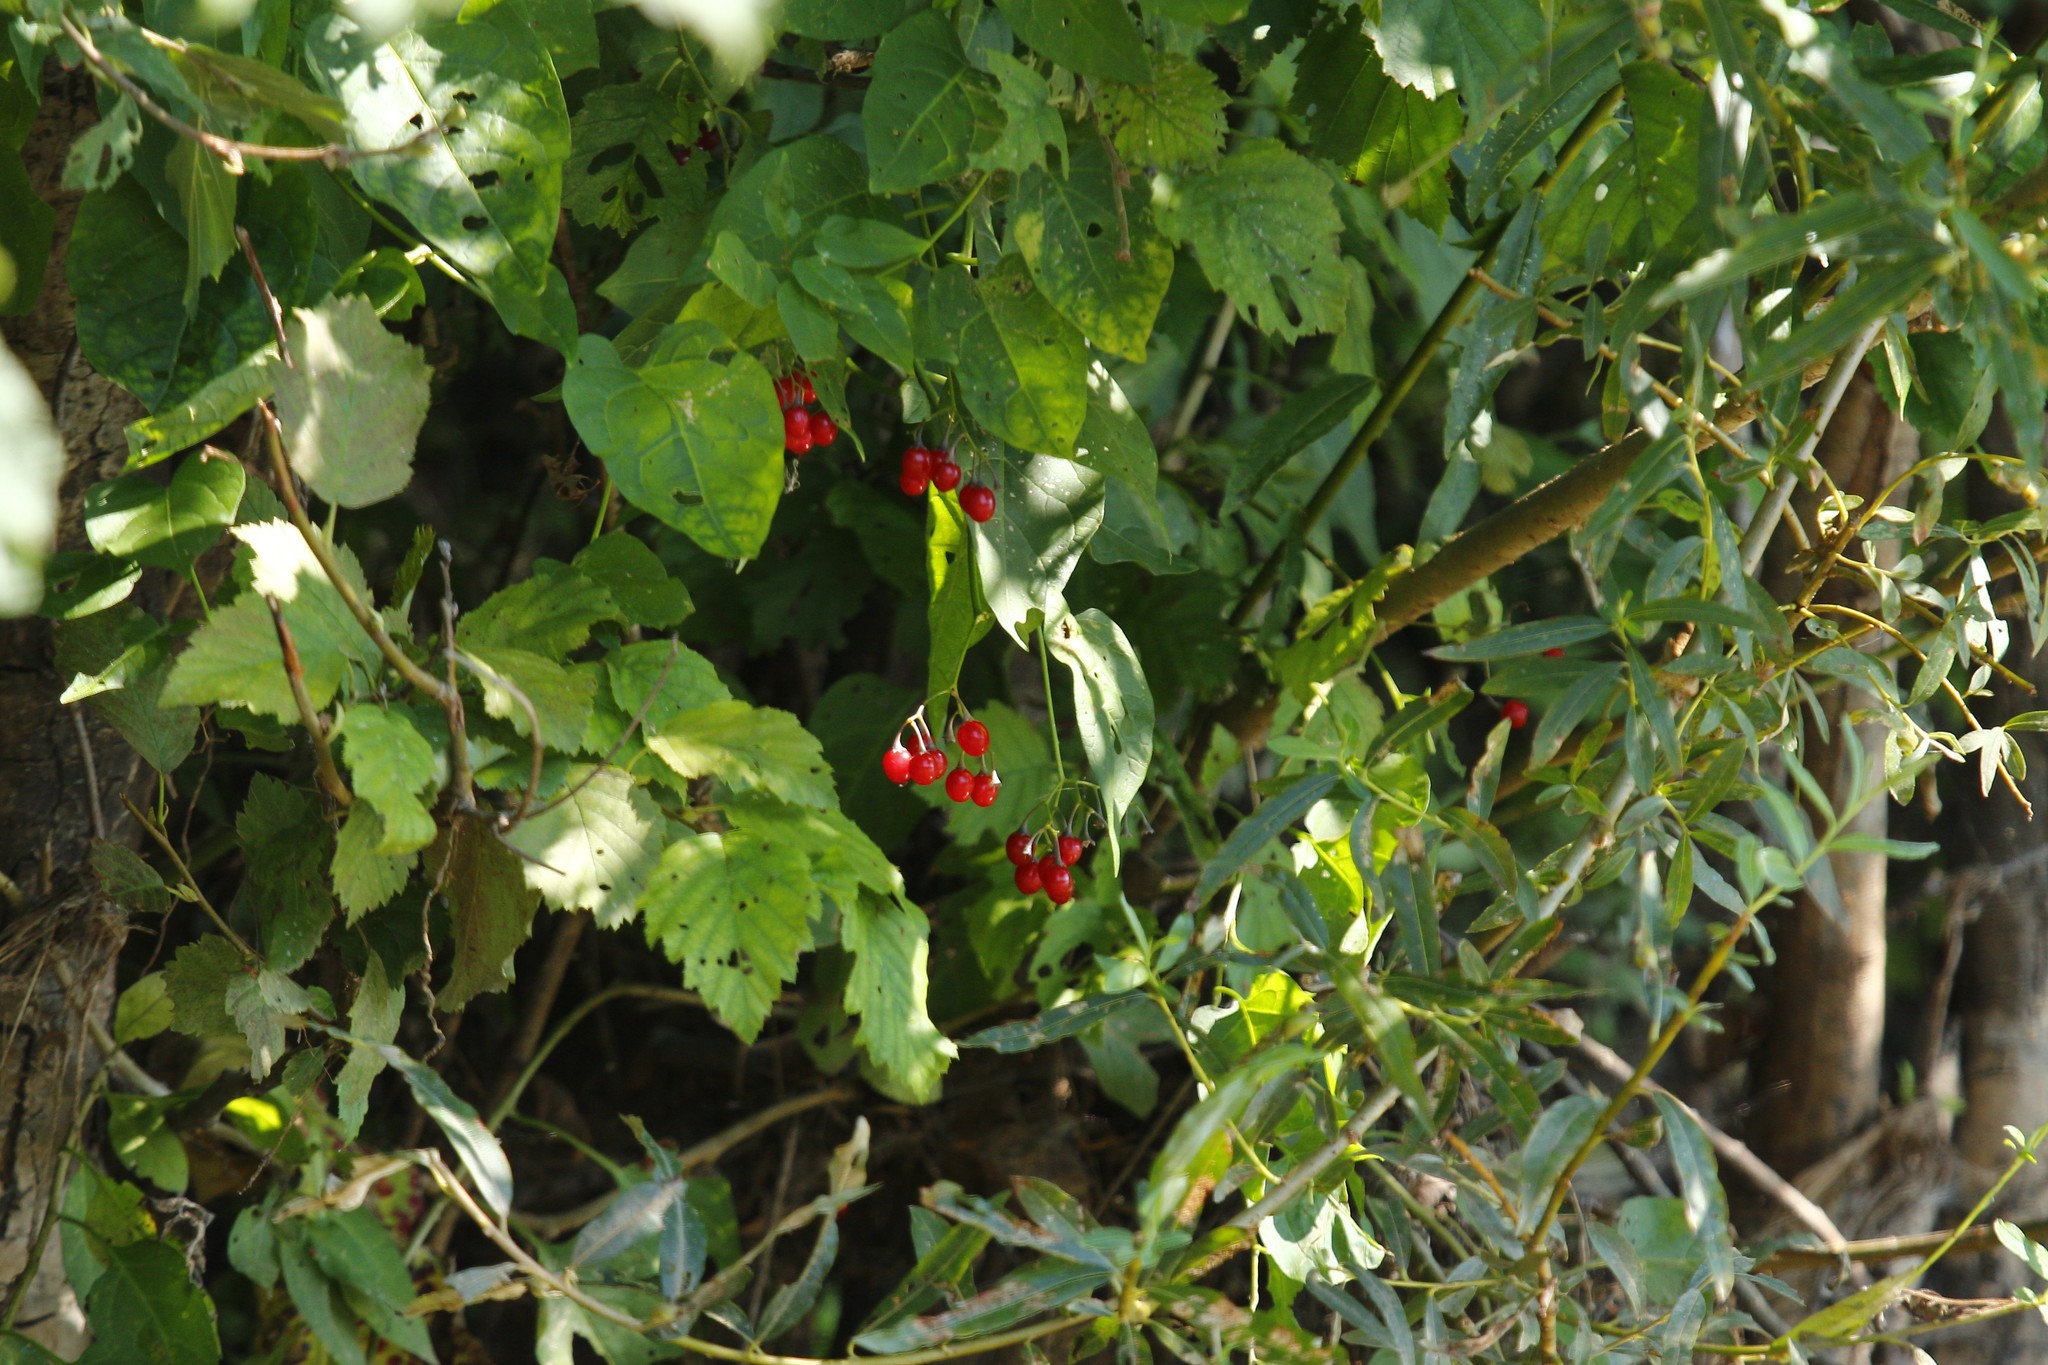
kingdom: Plantae
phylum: Tracheophyta
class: Magnoliopsida
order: Solanales
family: Solanaceae
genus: Solanum
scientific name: Solanum dulcamara
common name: Climbing nightshade
